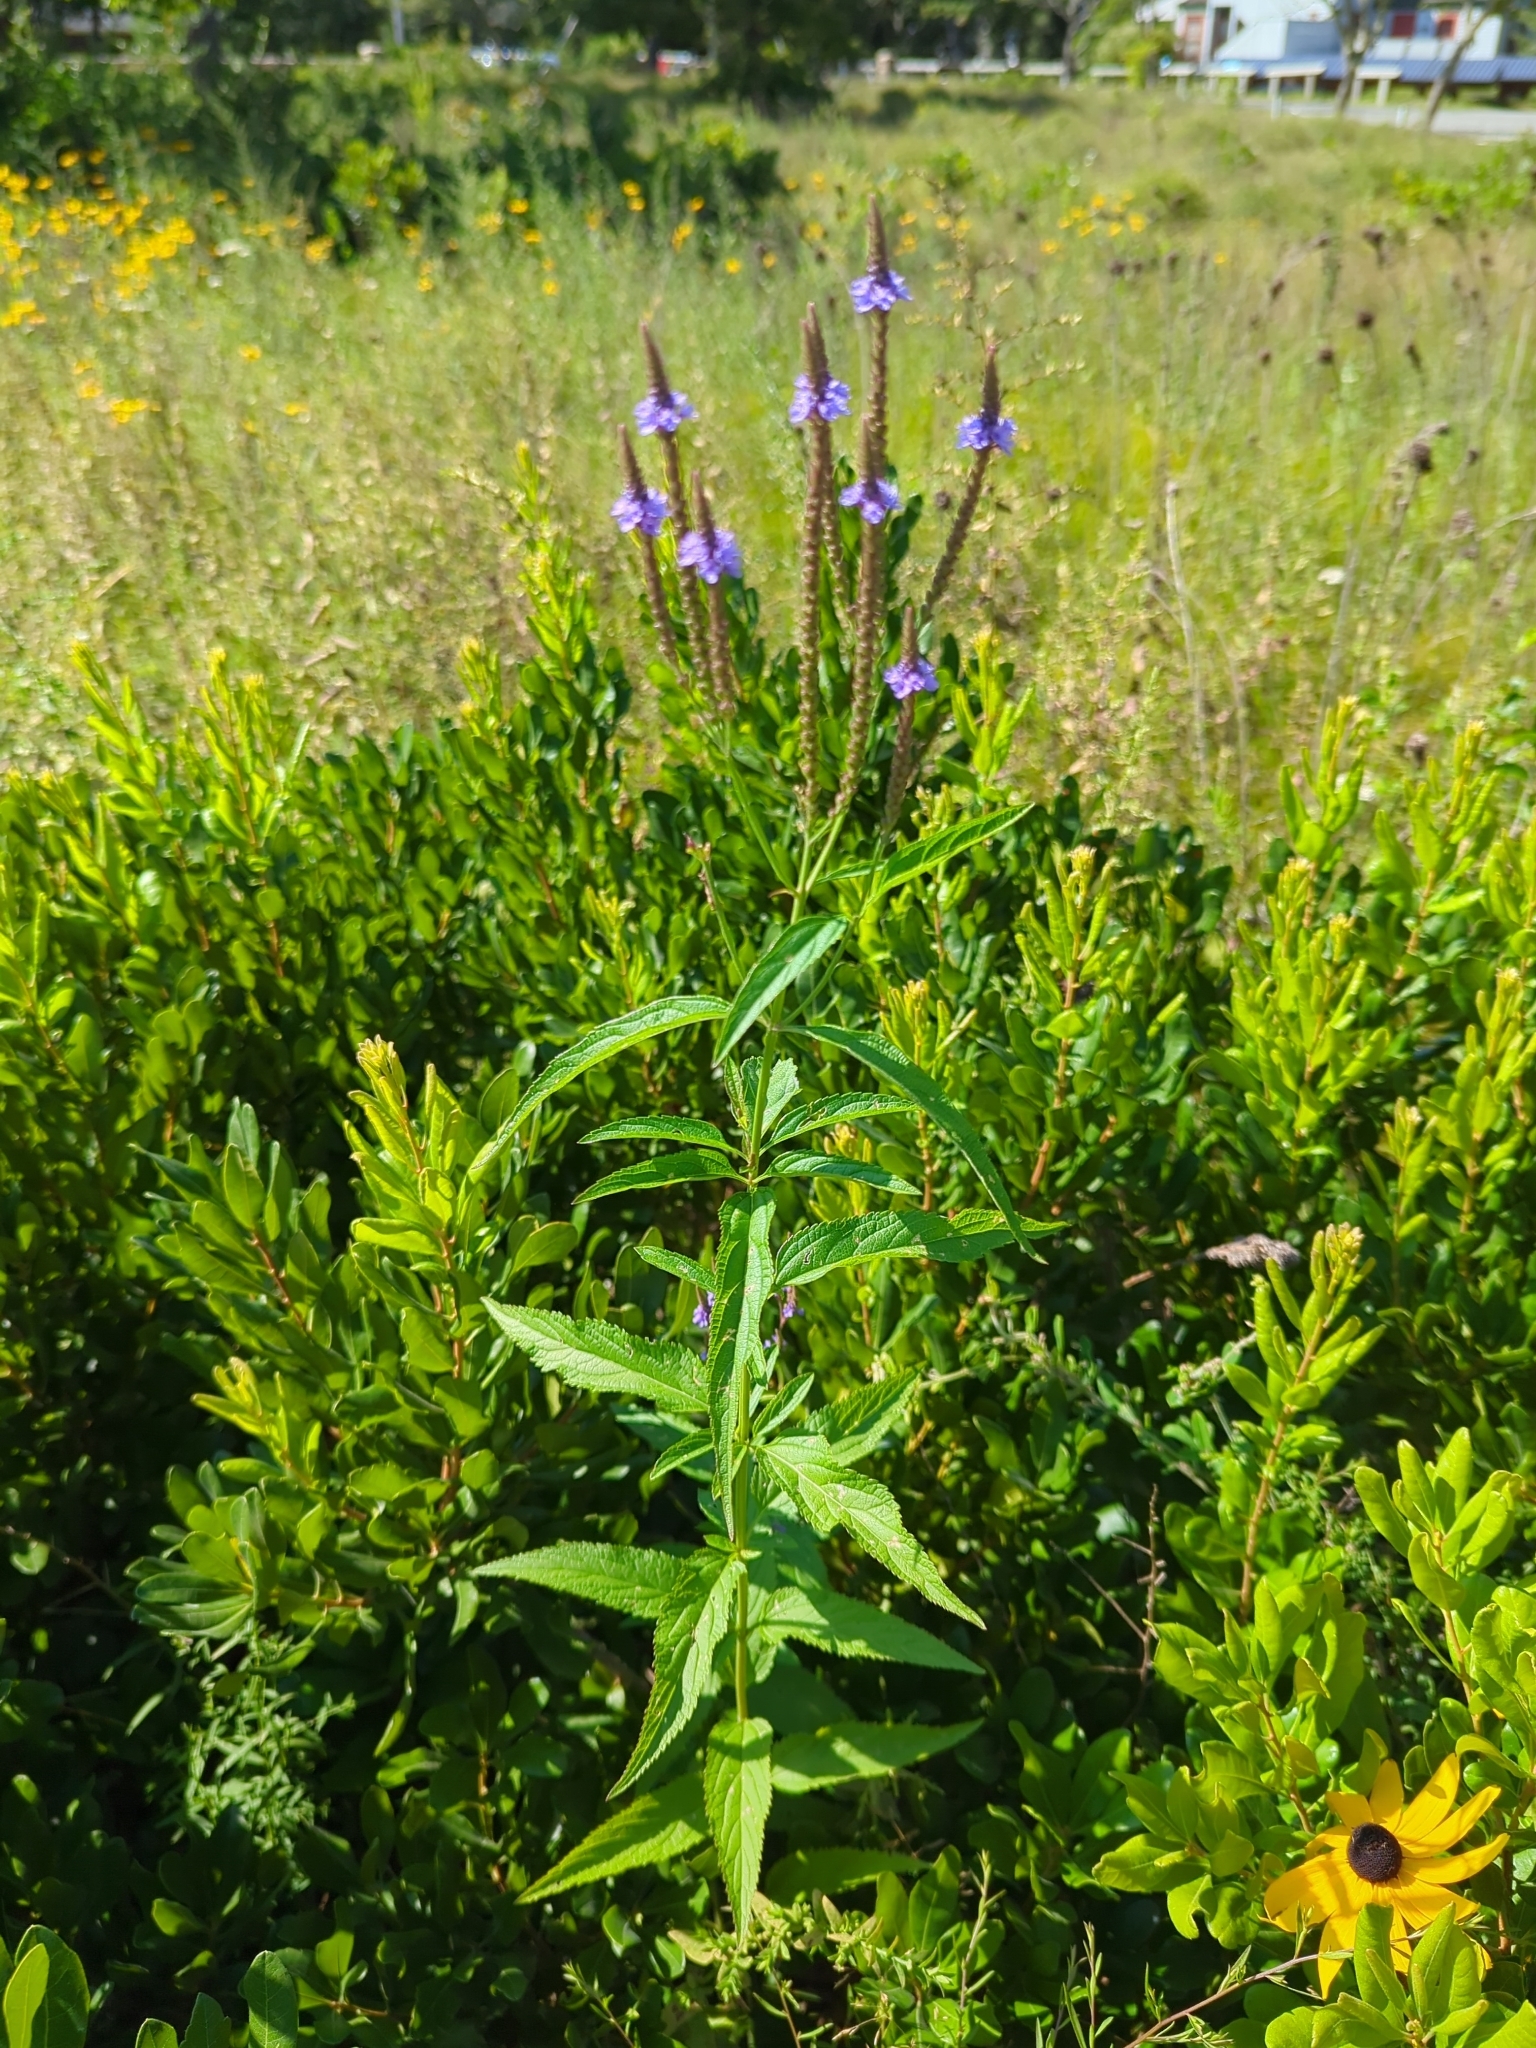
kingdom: Plantae
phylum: Tracheophyta
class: Magnoliopsida
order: Lamiales
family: Verbenaceae
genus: Verbena
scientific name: Verbena hastata
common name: American blue vervain
